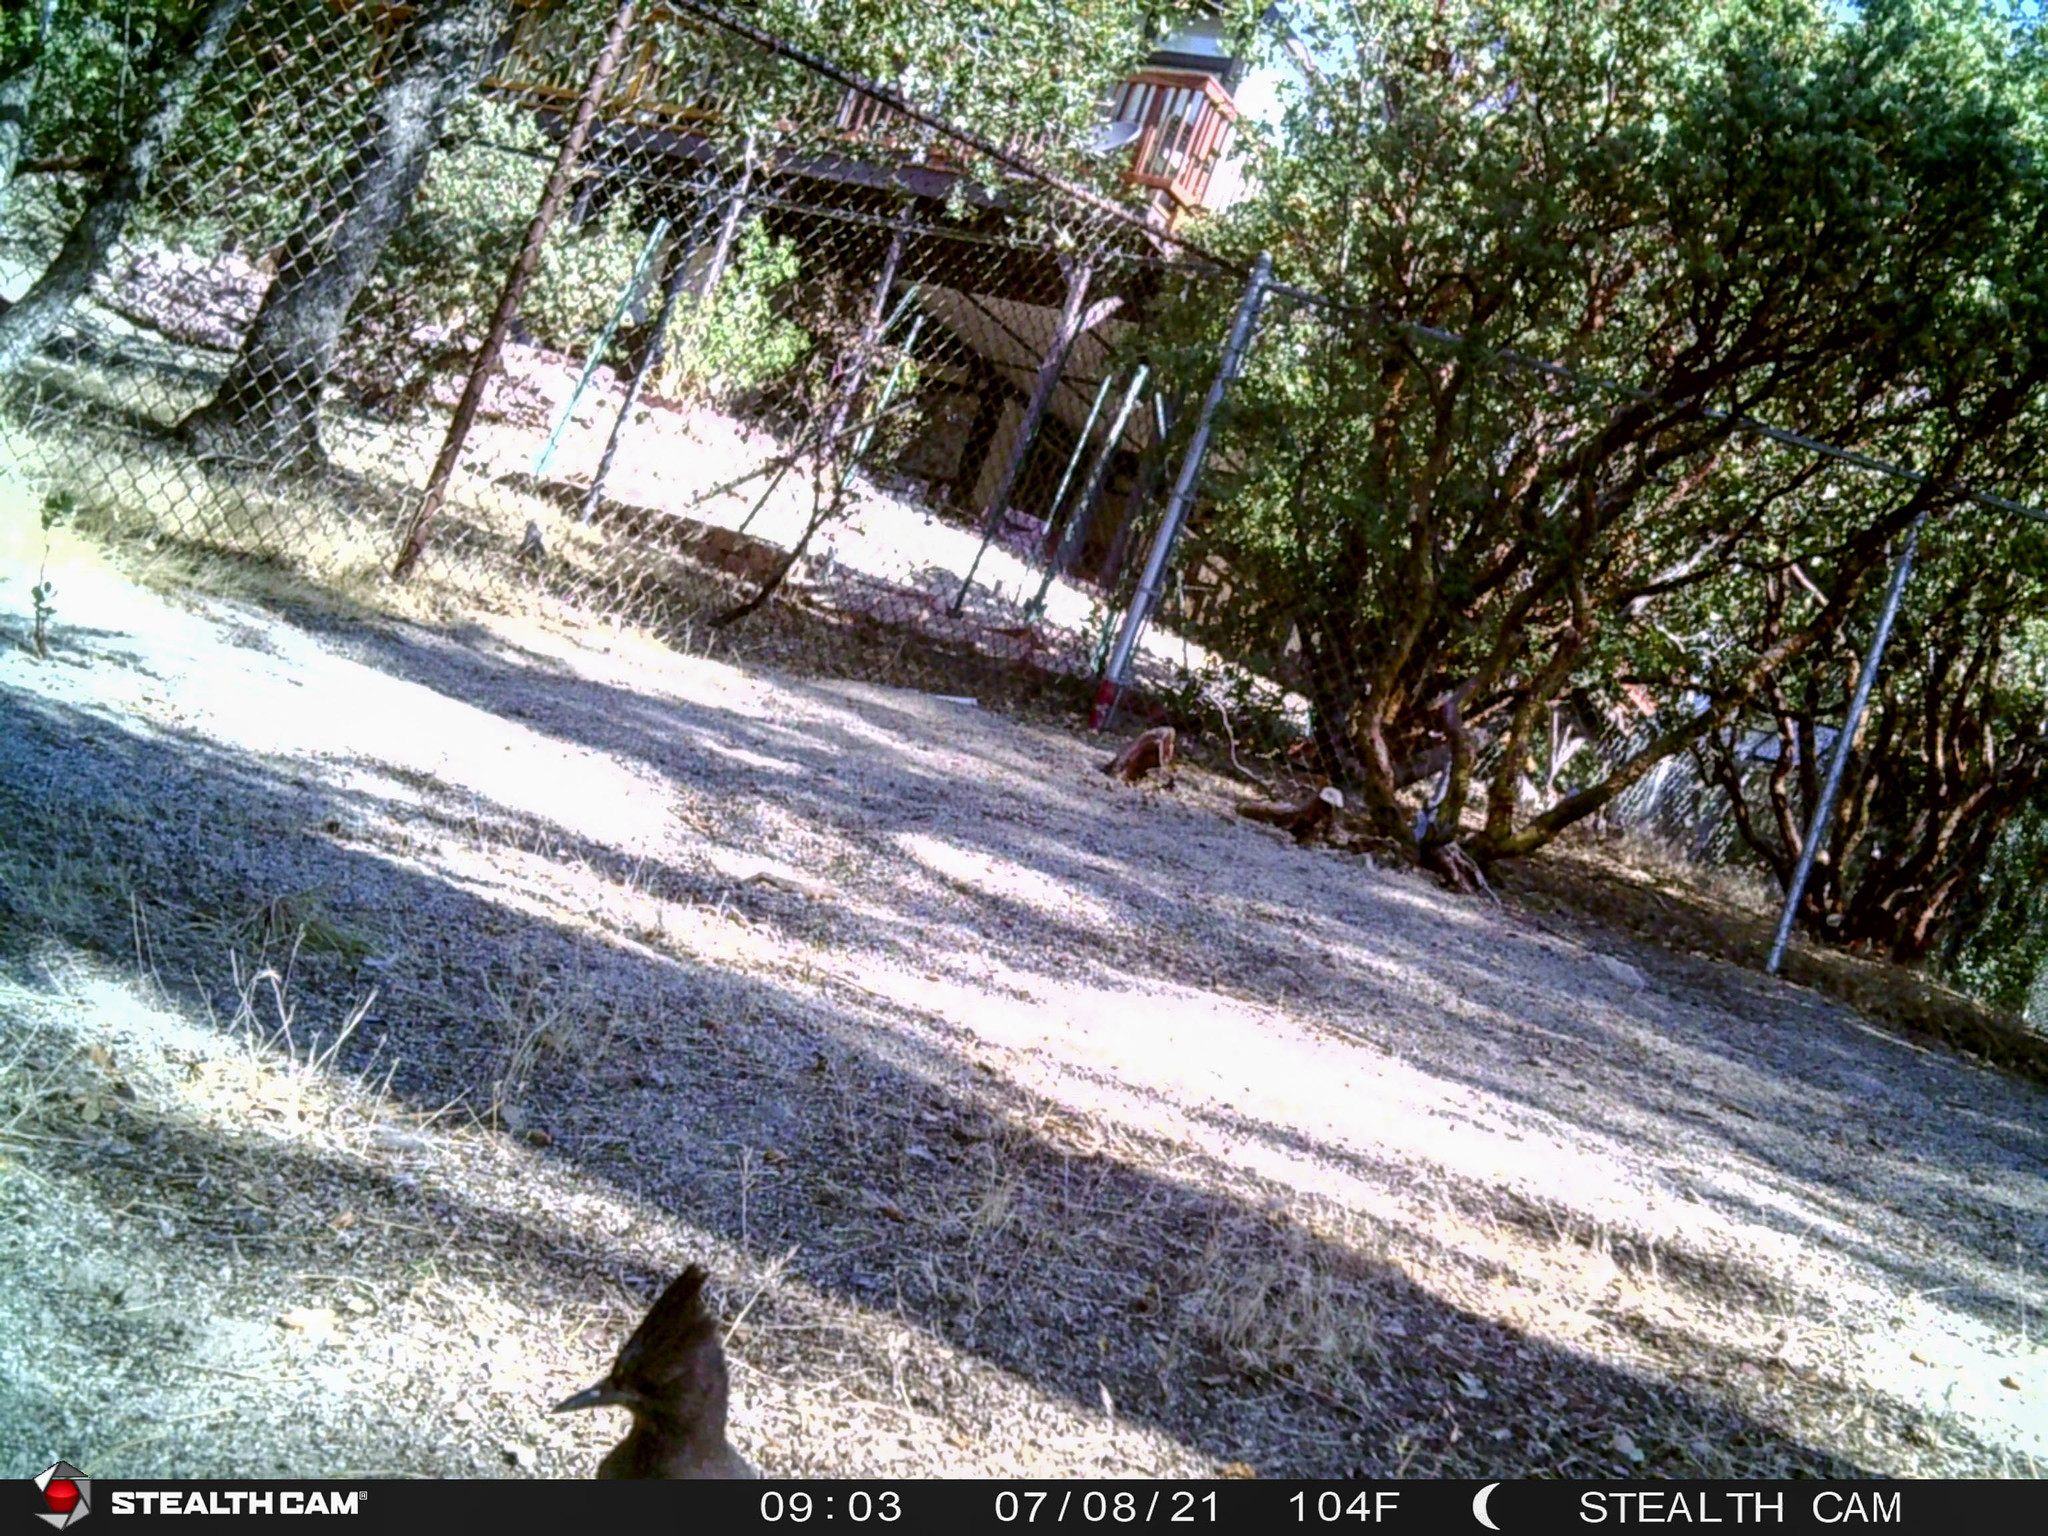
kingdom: Animalia
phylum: Chordata
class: Aves
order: Passeriformes
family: Corvidae
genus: Cyanocitta
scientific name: Cyanocitta stelleri
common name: Steller's jay
